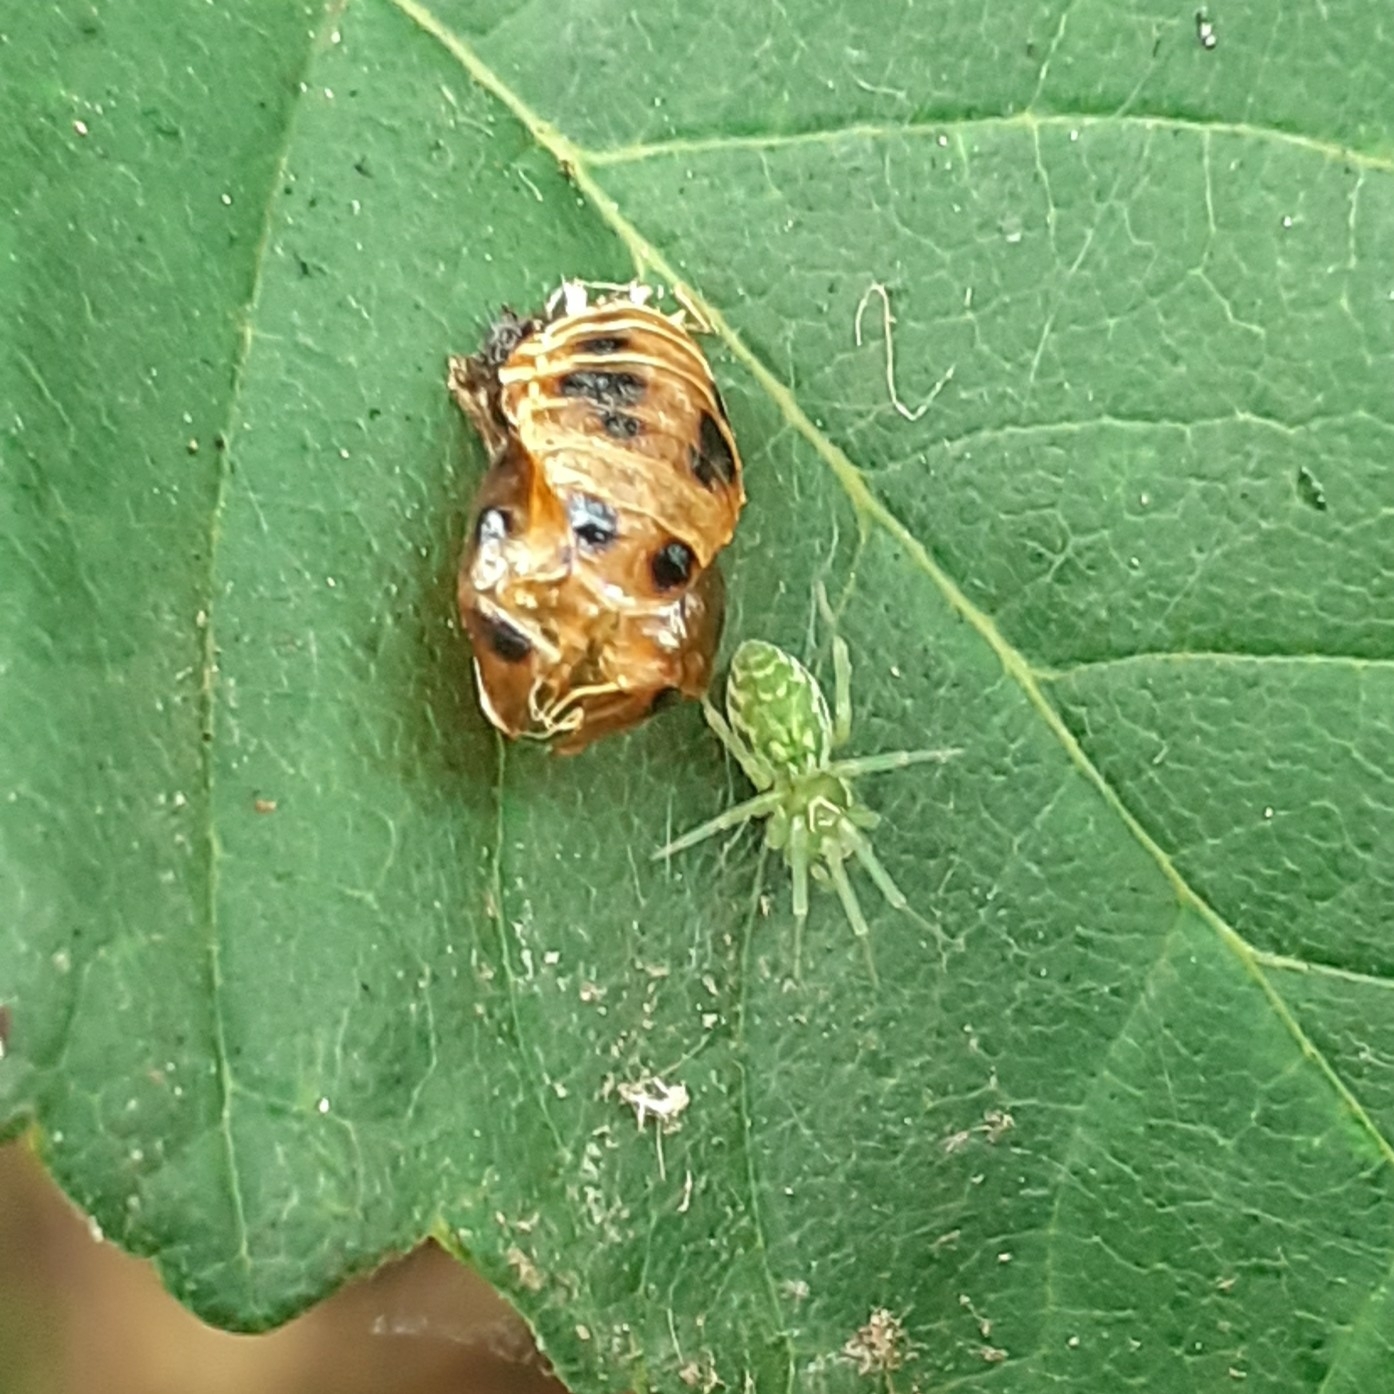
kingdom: Animalia
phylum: Arthropoda
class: Arachnida
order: Araneae
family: Dictynidae
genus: Nigma
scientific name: Nigma walckenaeri
